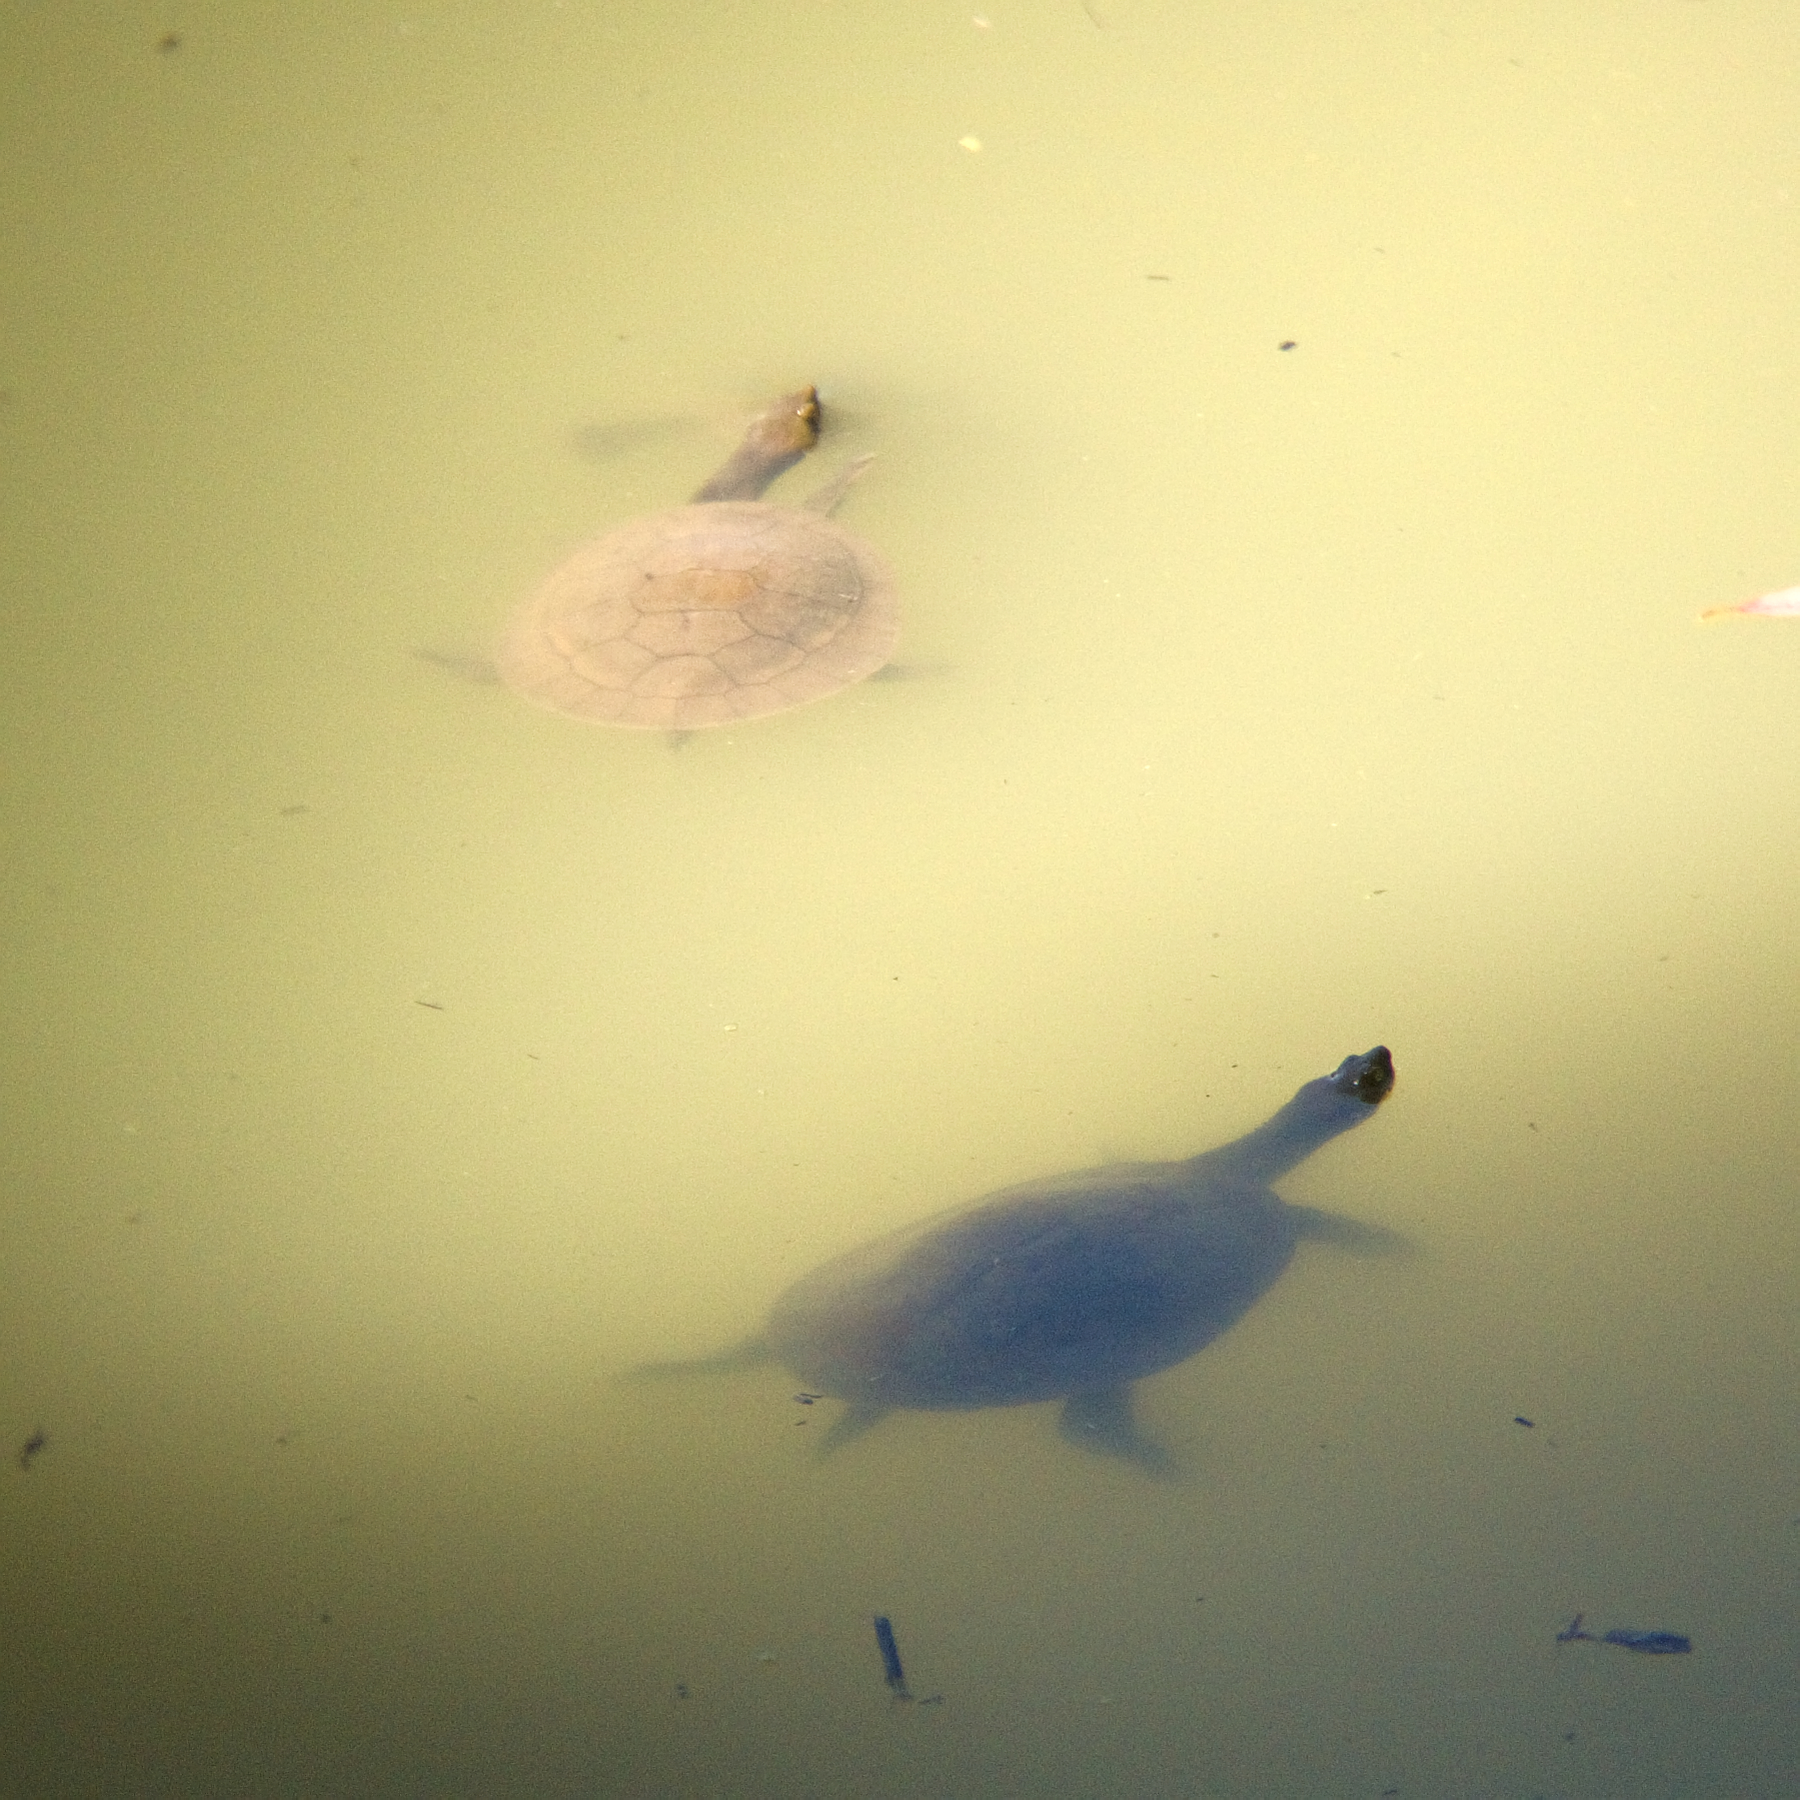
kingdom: Animalia
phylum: Chordata
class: Testudines
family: Chelidae
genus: Emydura
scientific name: Emydura macquarii
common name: Murray river turtle
